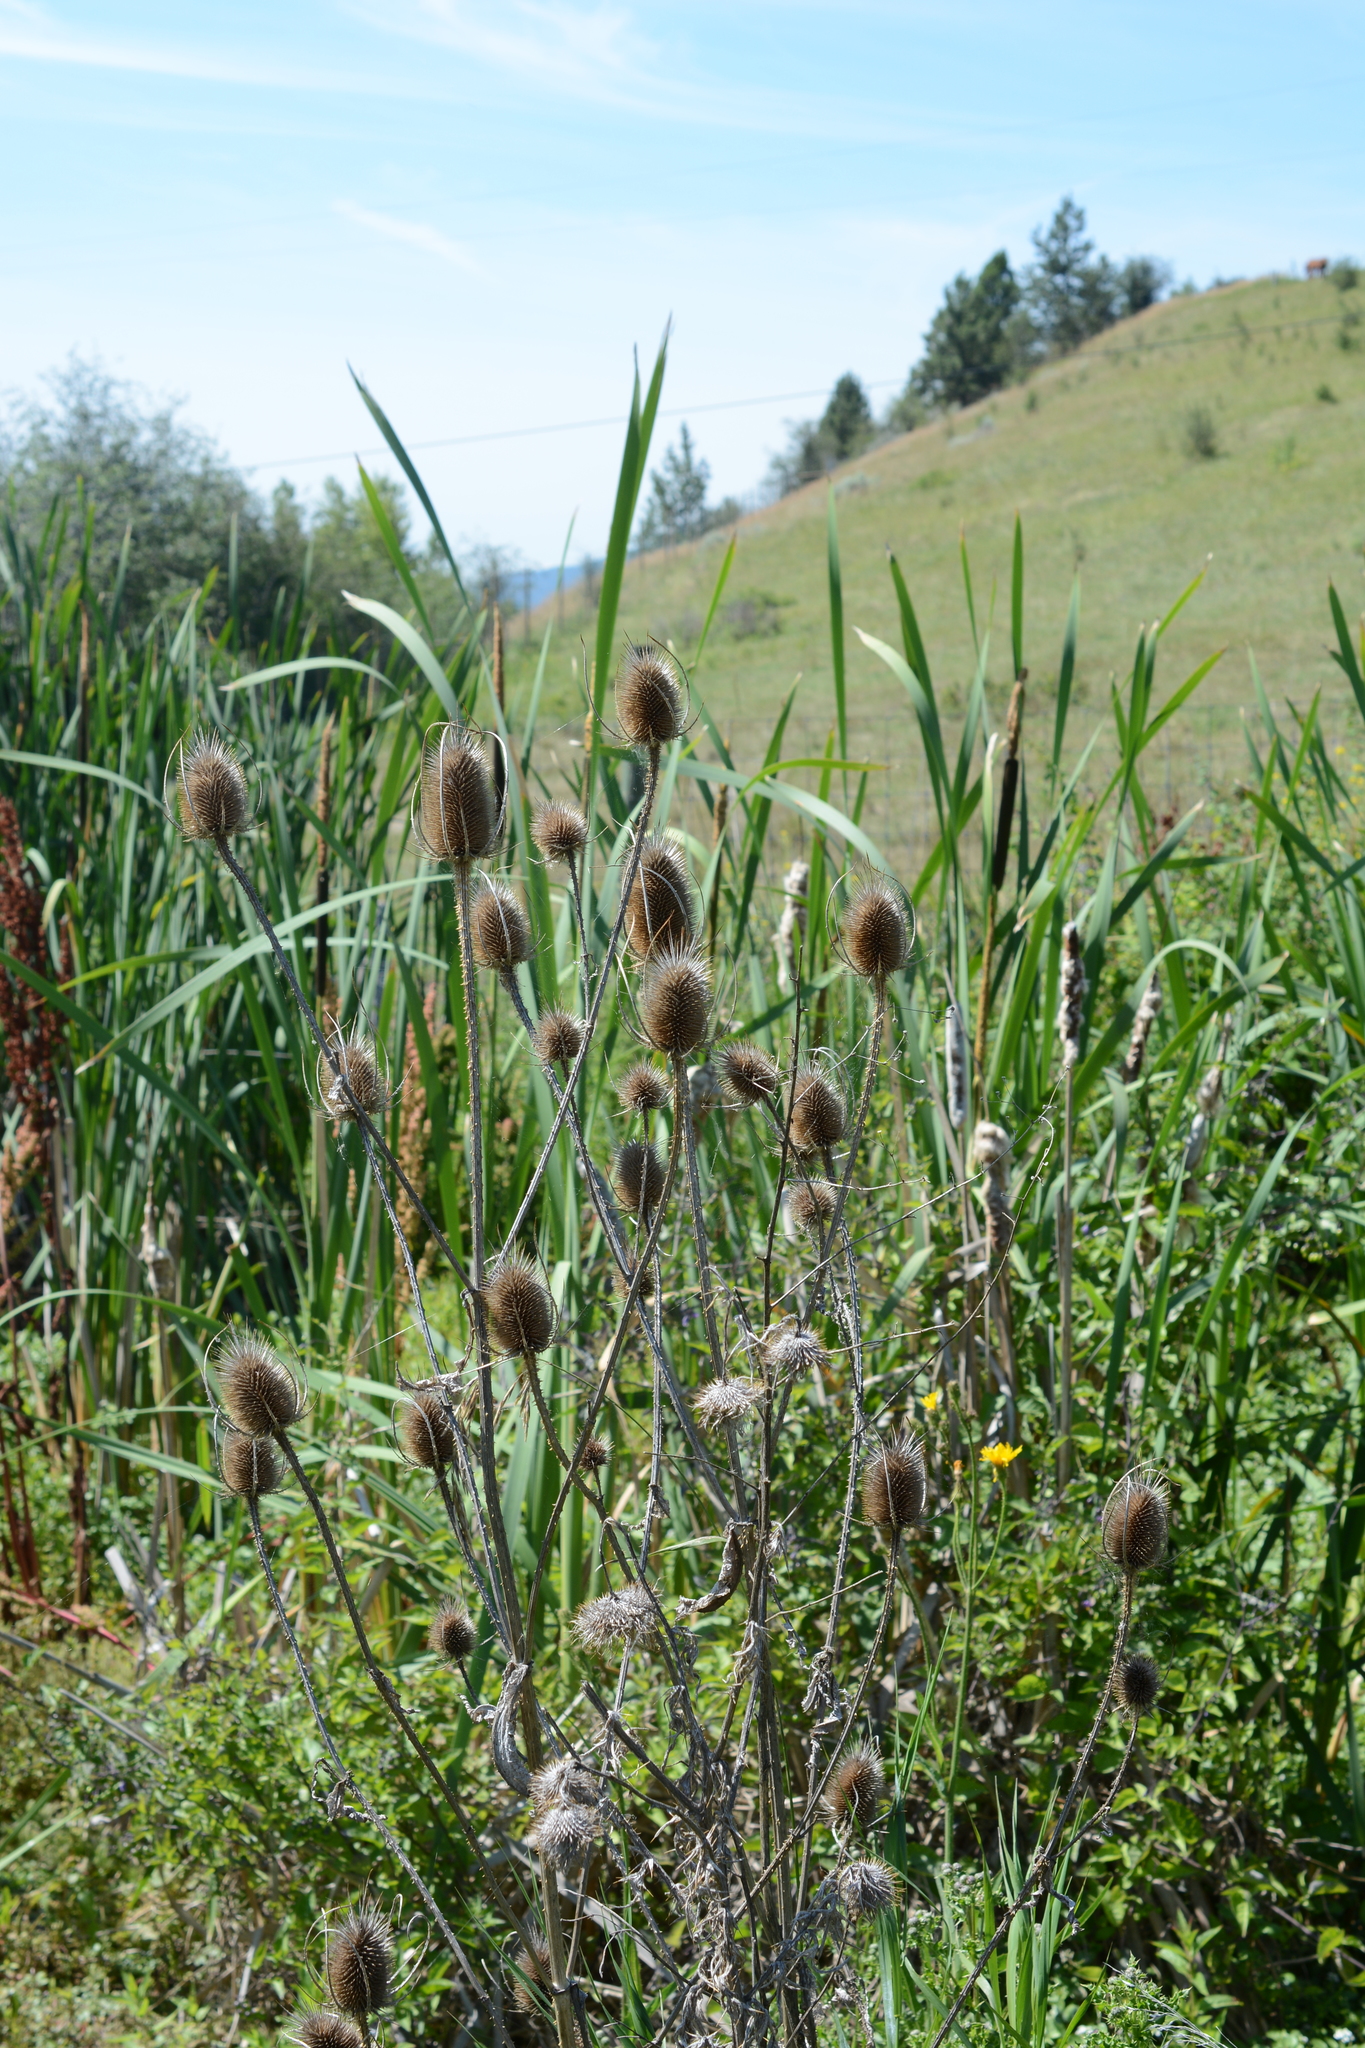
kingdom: Plantae
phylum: Tracheophyta
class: Magnoliopsida
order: Dipsacales
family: Caprifoliaceae
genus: Dipsacus
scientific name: Dipsacus fullonum
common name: Teasel
